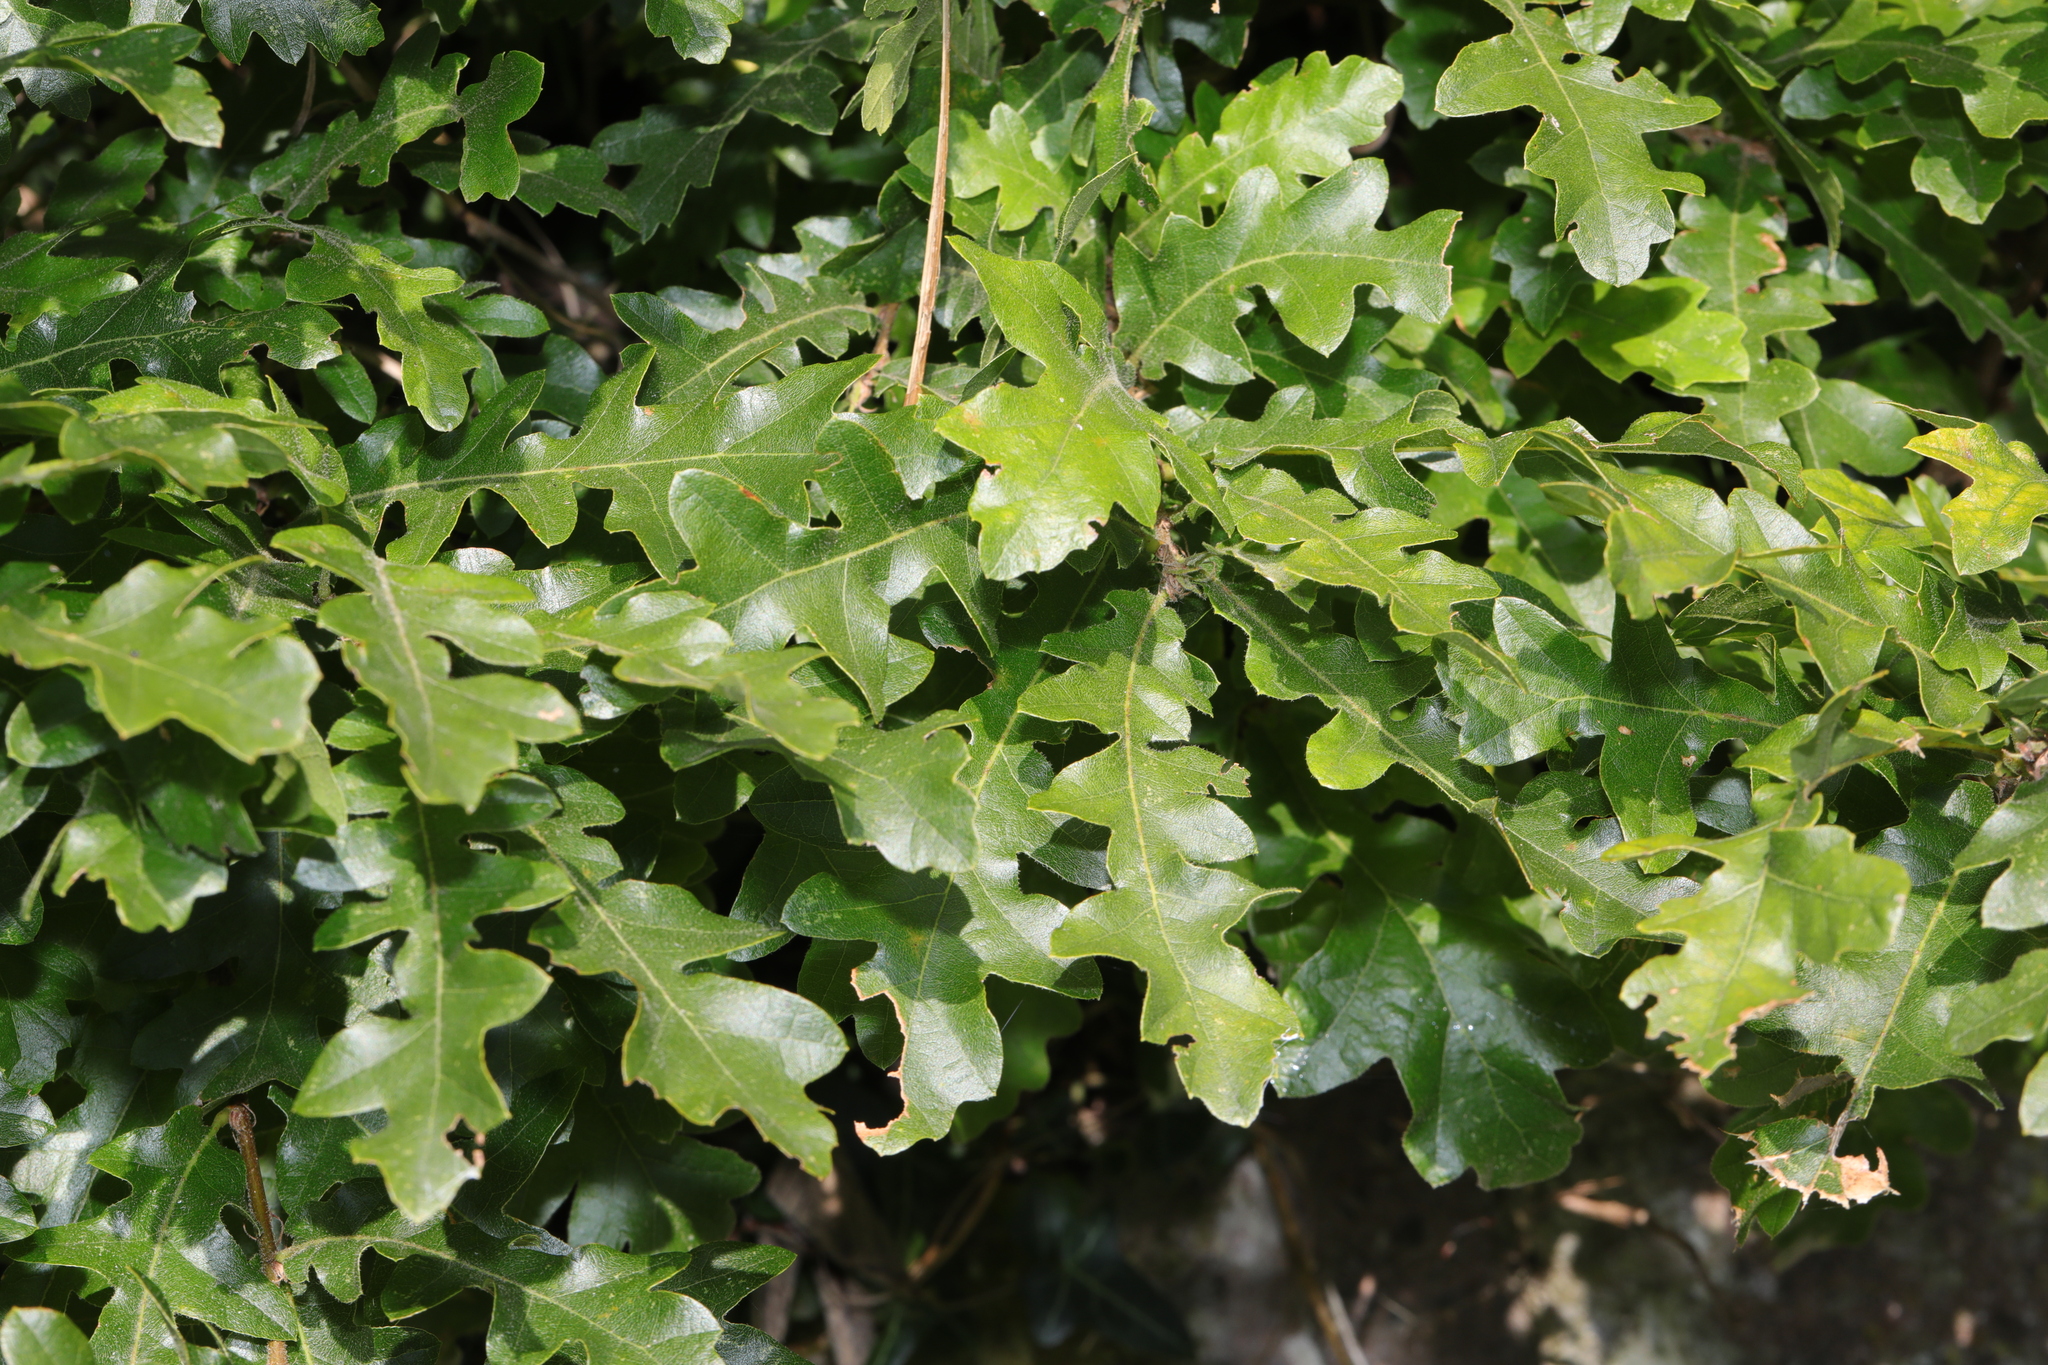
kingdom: Plantae
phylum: Tracheophyta
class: Magnoliopsida
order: Fagales
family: Fagaceae
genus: Quercus
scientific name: Quercus cerris
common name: Turkey oak
